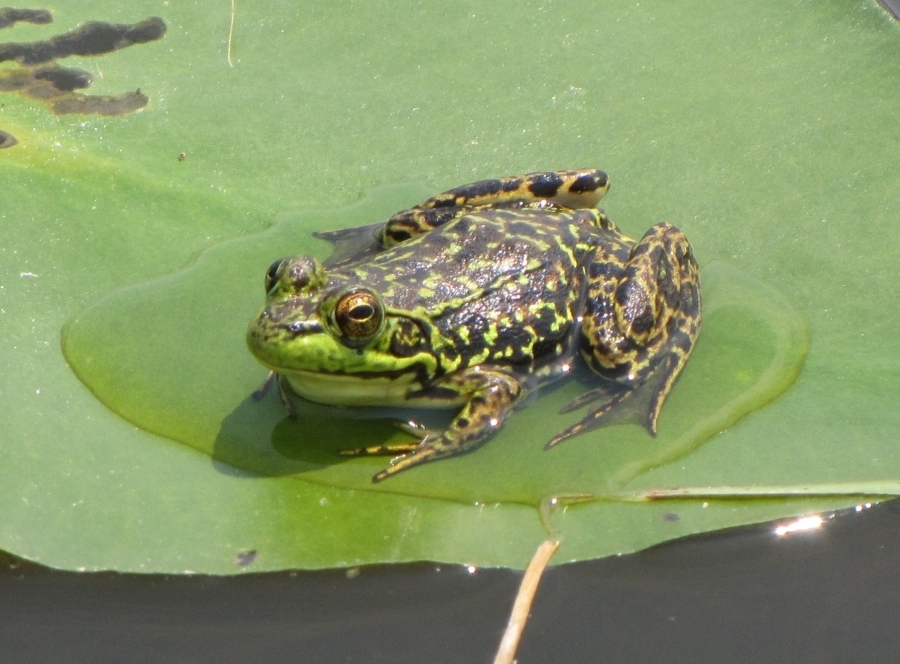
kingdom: Animalia
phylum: Chordata
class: Amphibia
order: Anura
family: Ranidae
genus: Lithobates
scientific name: Lithobates septentrionalis
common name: Mink frog
